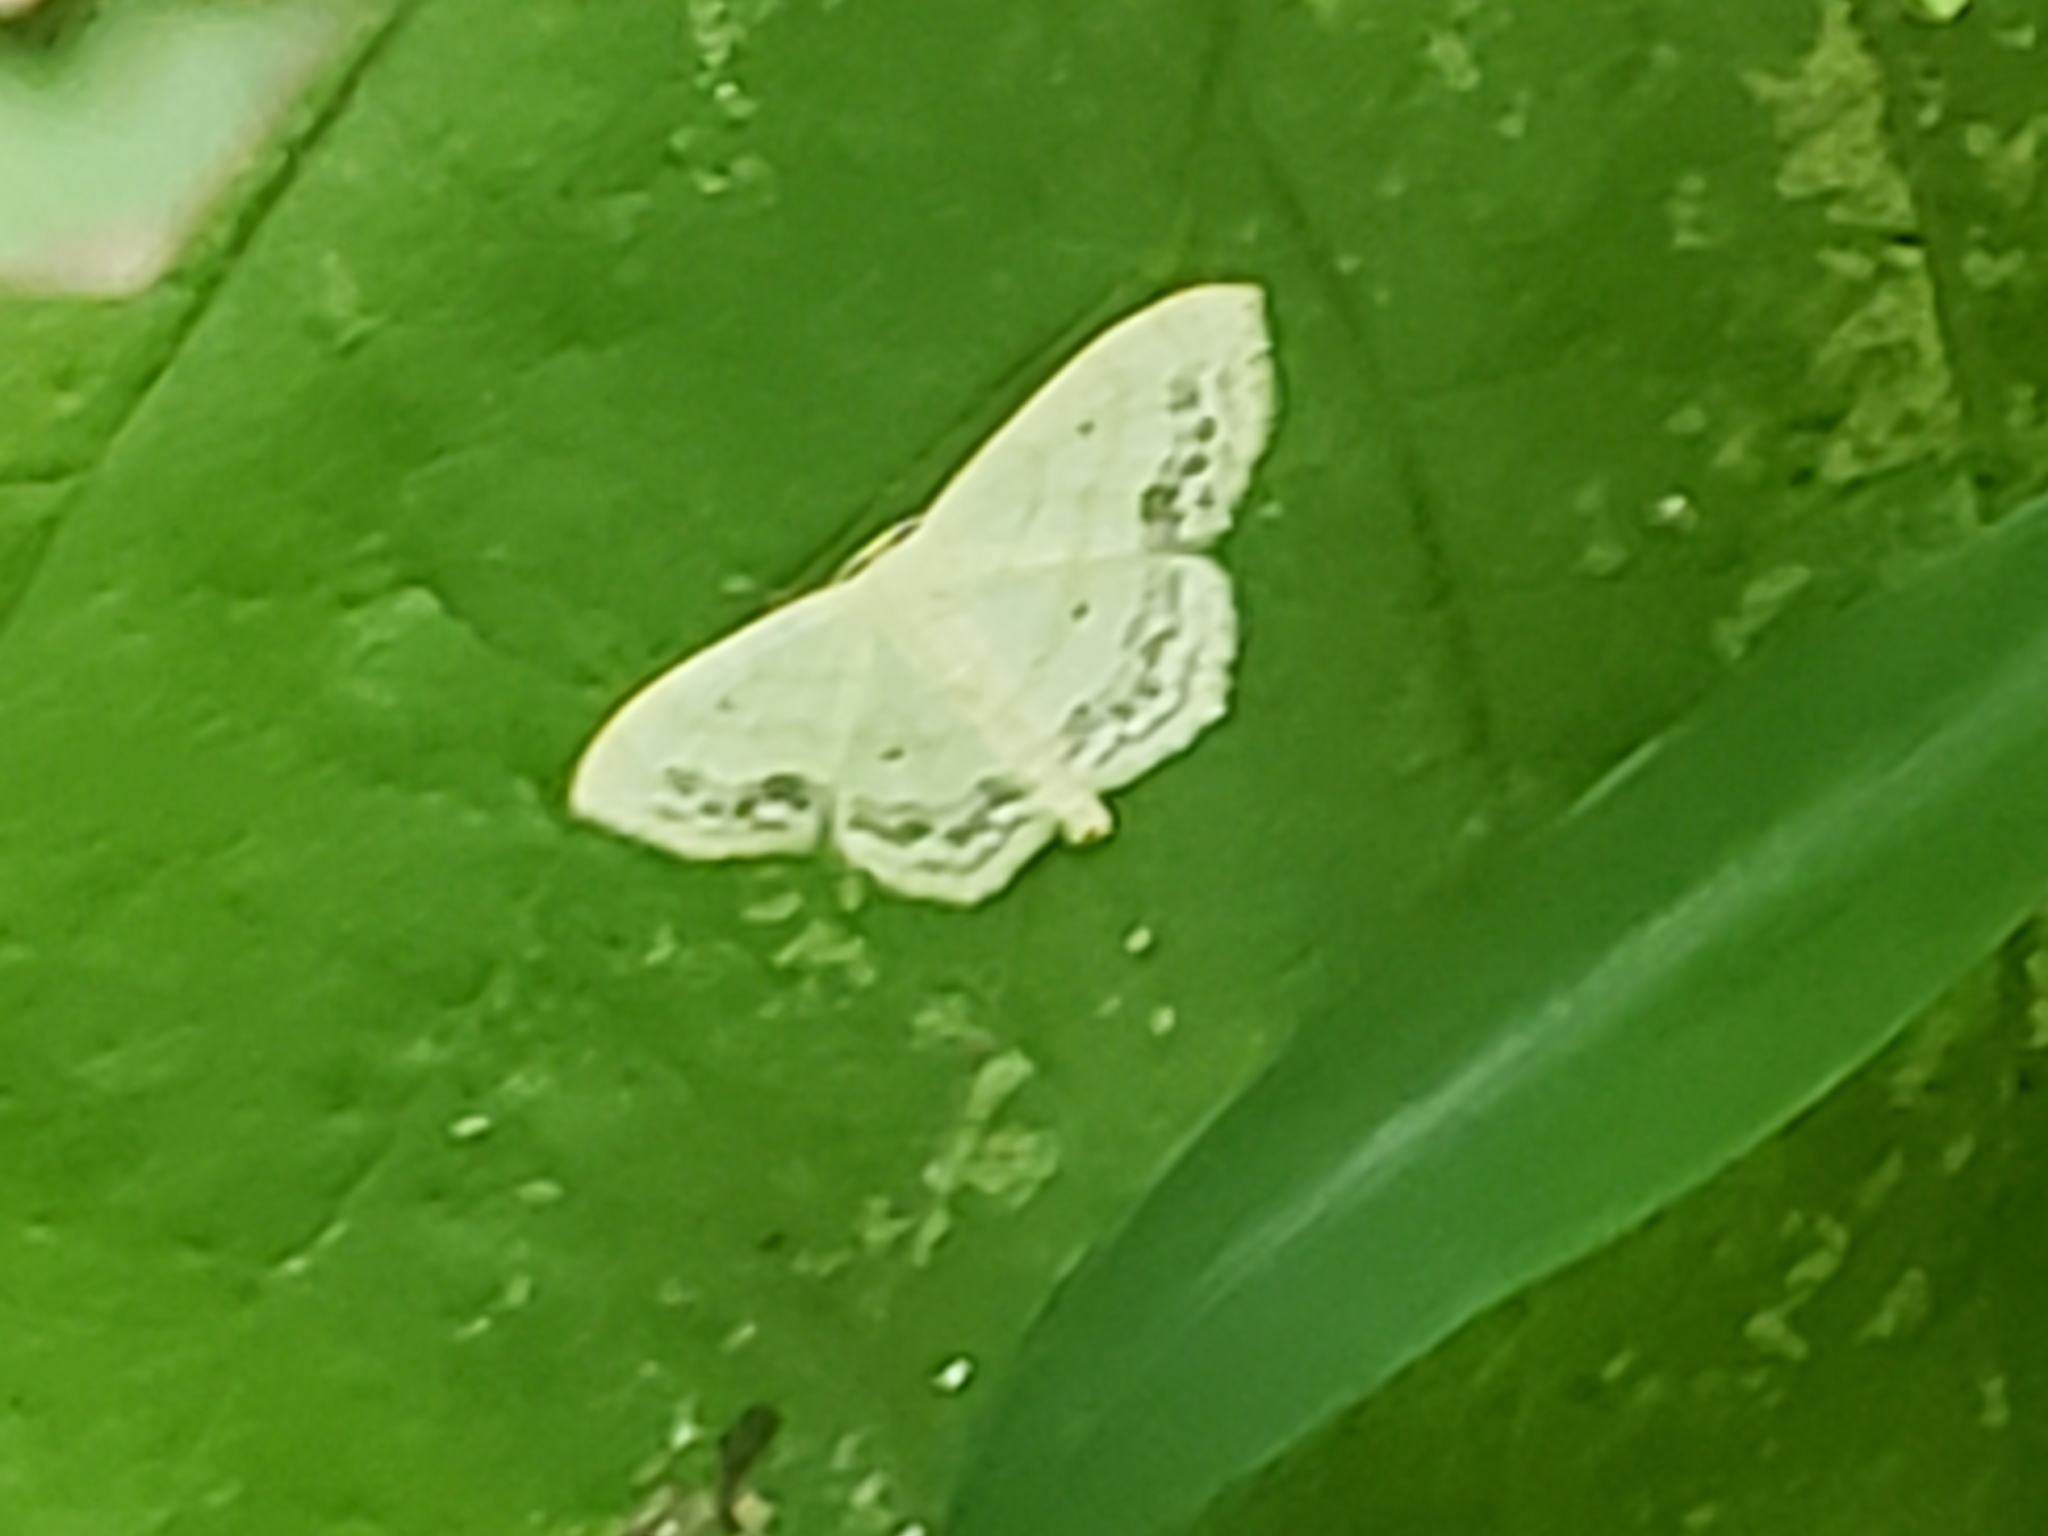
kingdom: Animalia
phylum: Arthropoda
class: Insecta
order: Lepidoptera
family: Geometridae
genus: Scopula
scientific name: Scopula limboundata
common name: Large lace border
